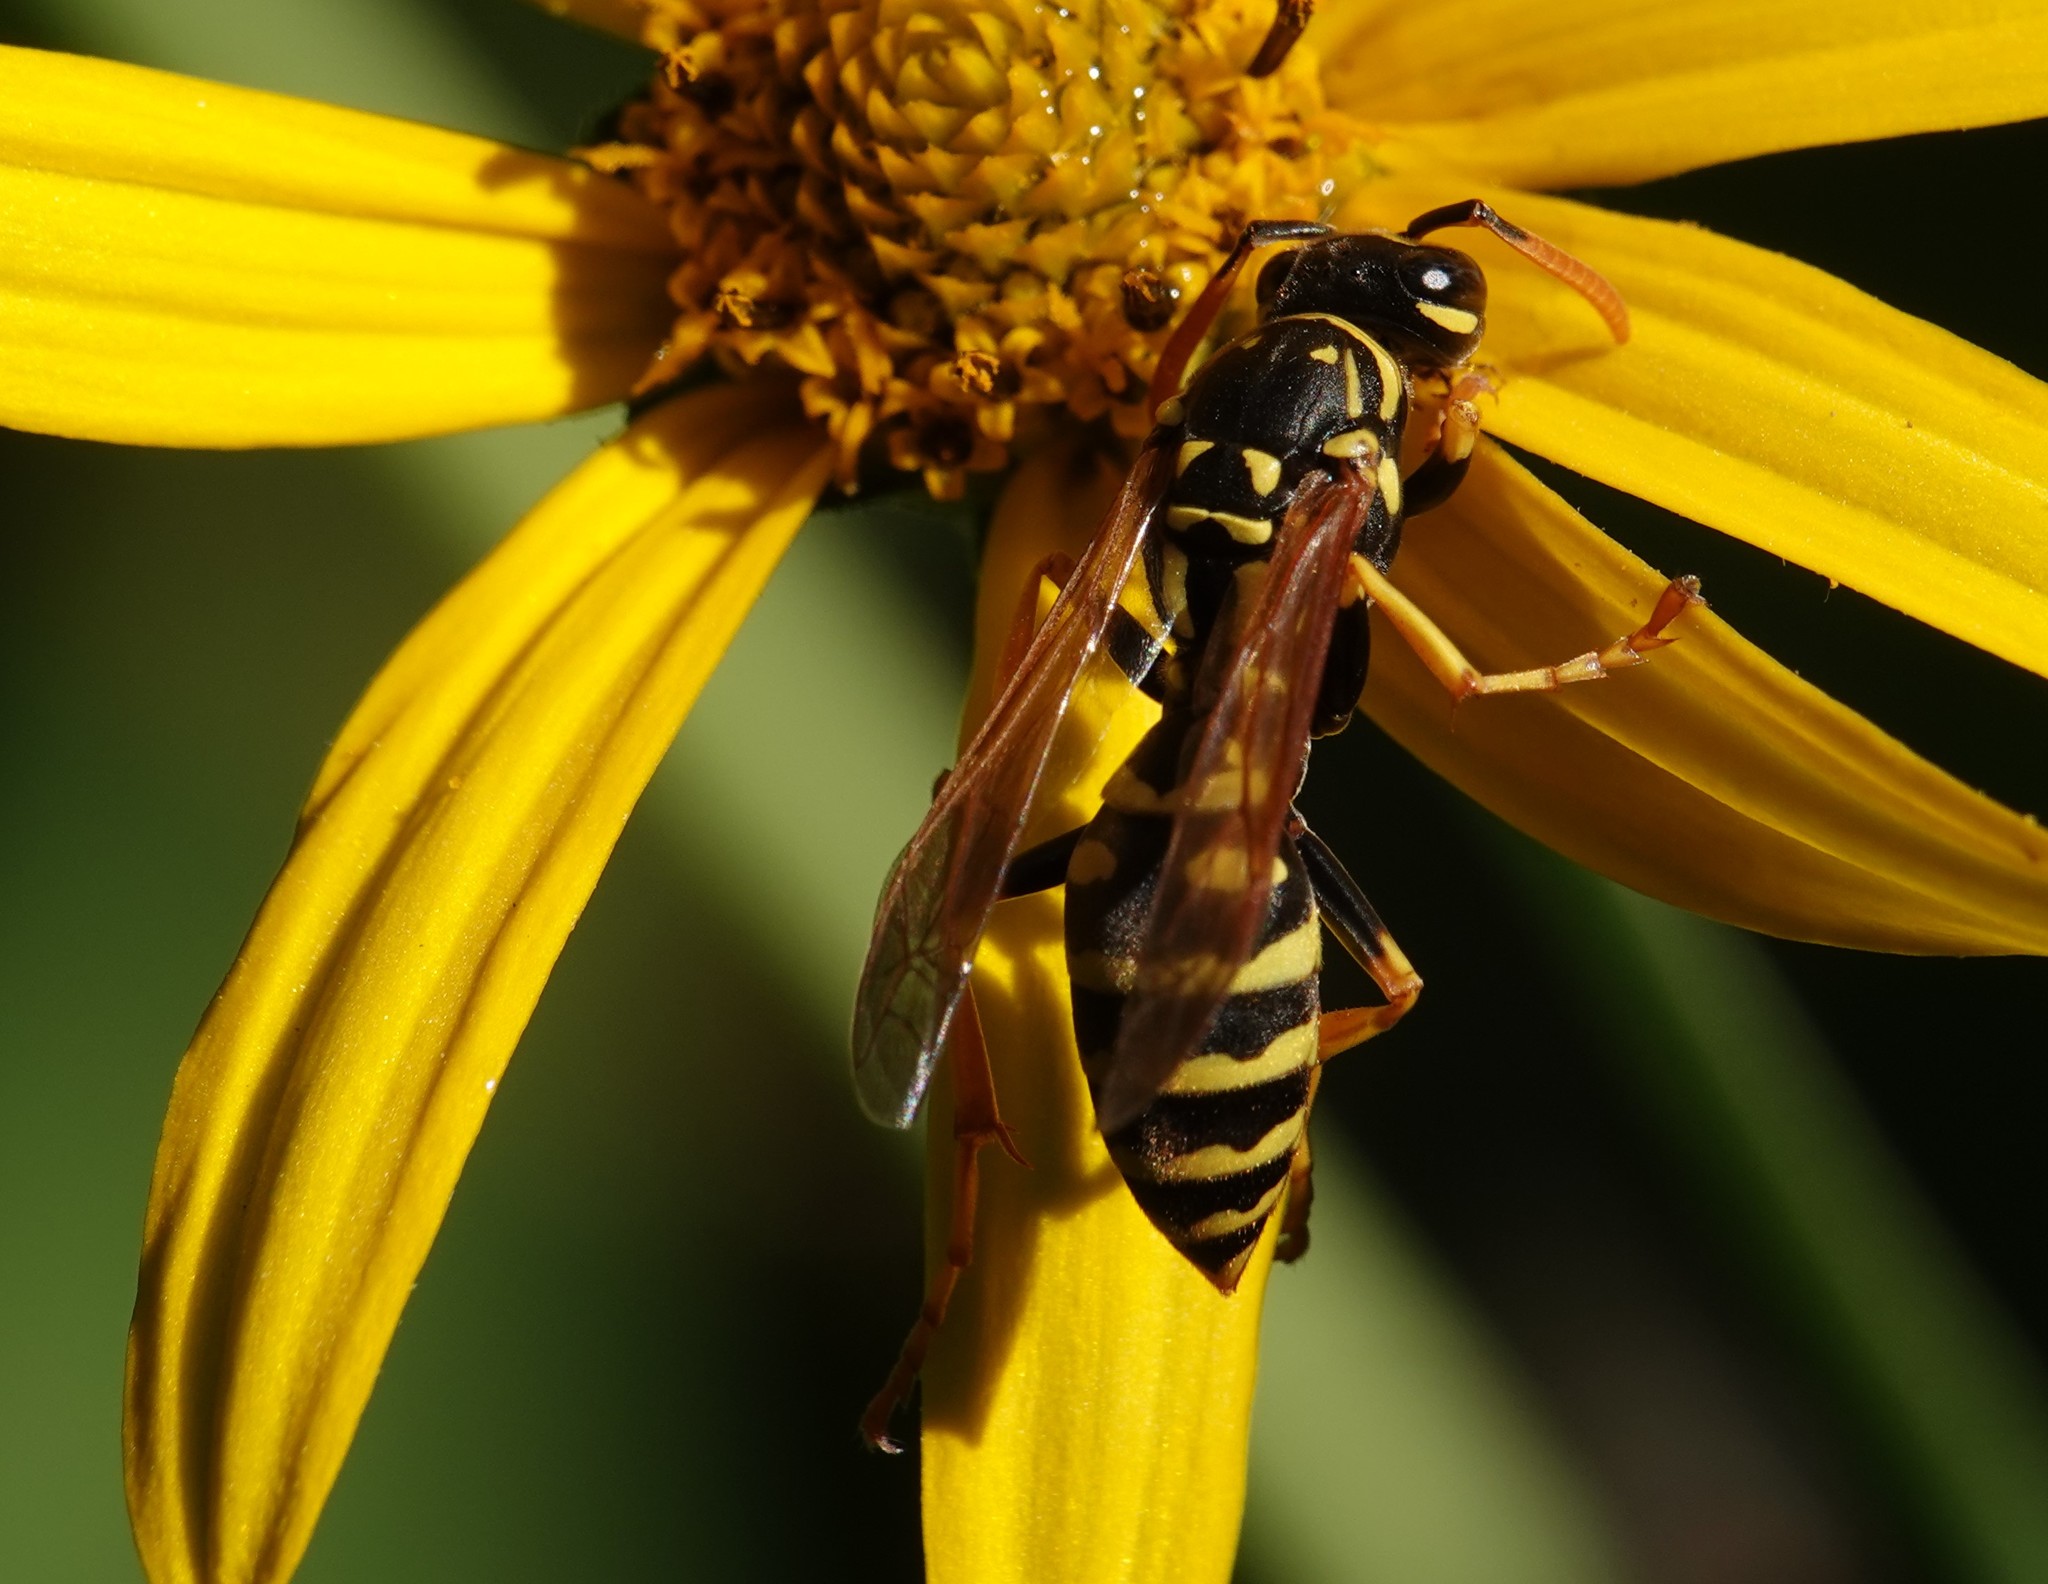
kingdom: Animalia
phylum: Arthropoda
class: Insecta
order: Hymenoptera
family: Eumenidae
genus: Polistes
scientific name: Polistes dominula
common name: Paper wasp
